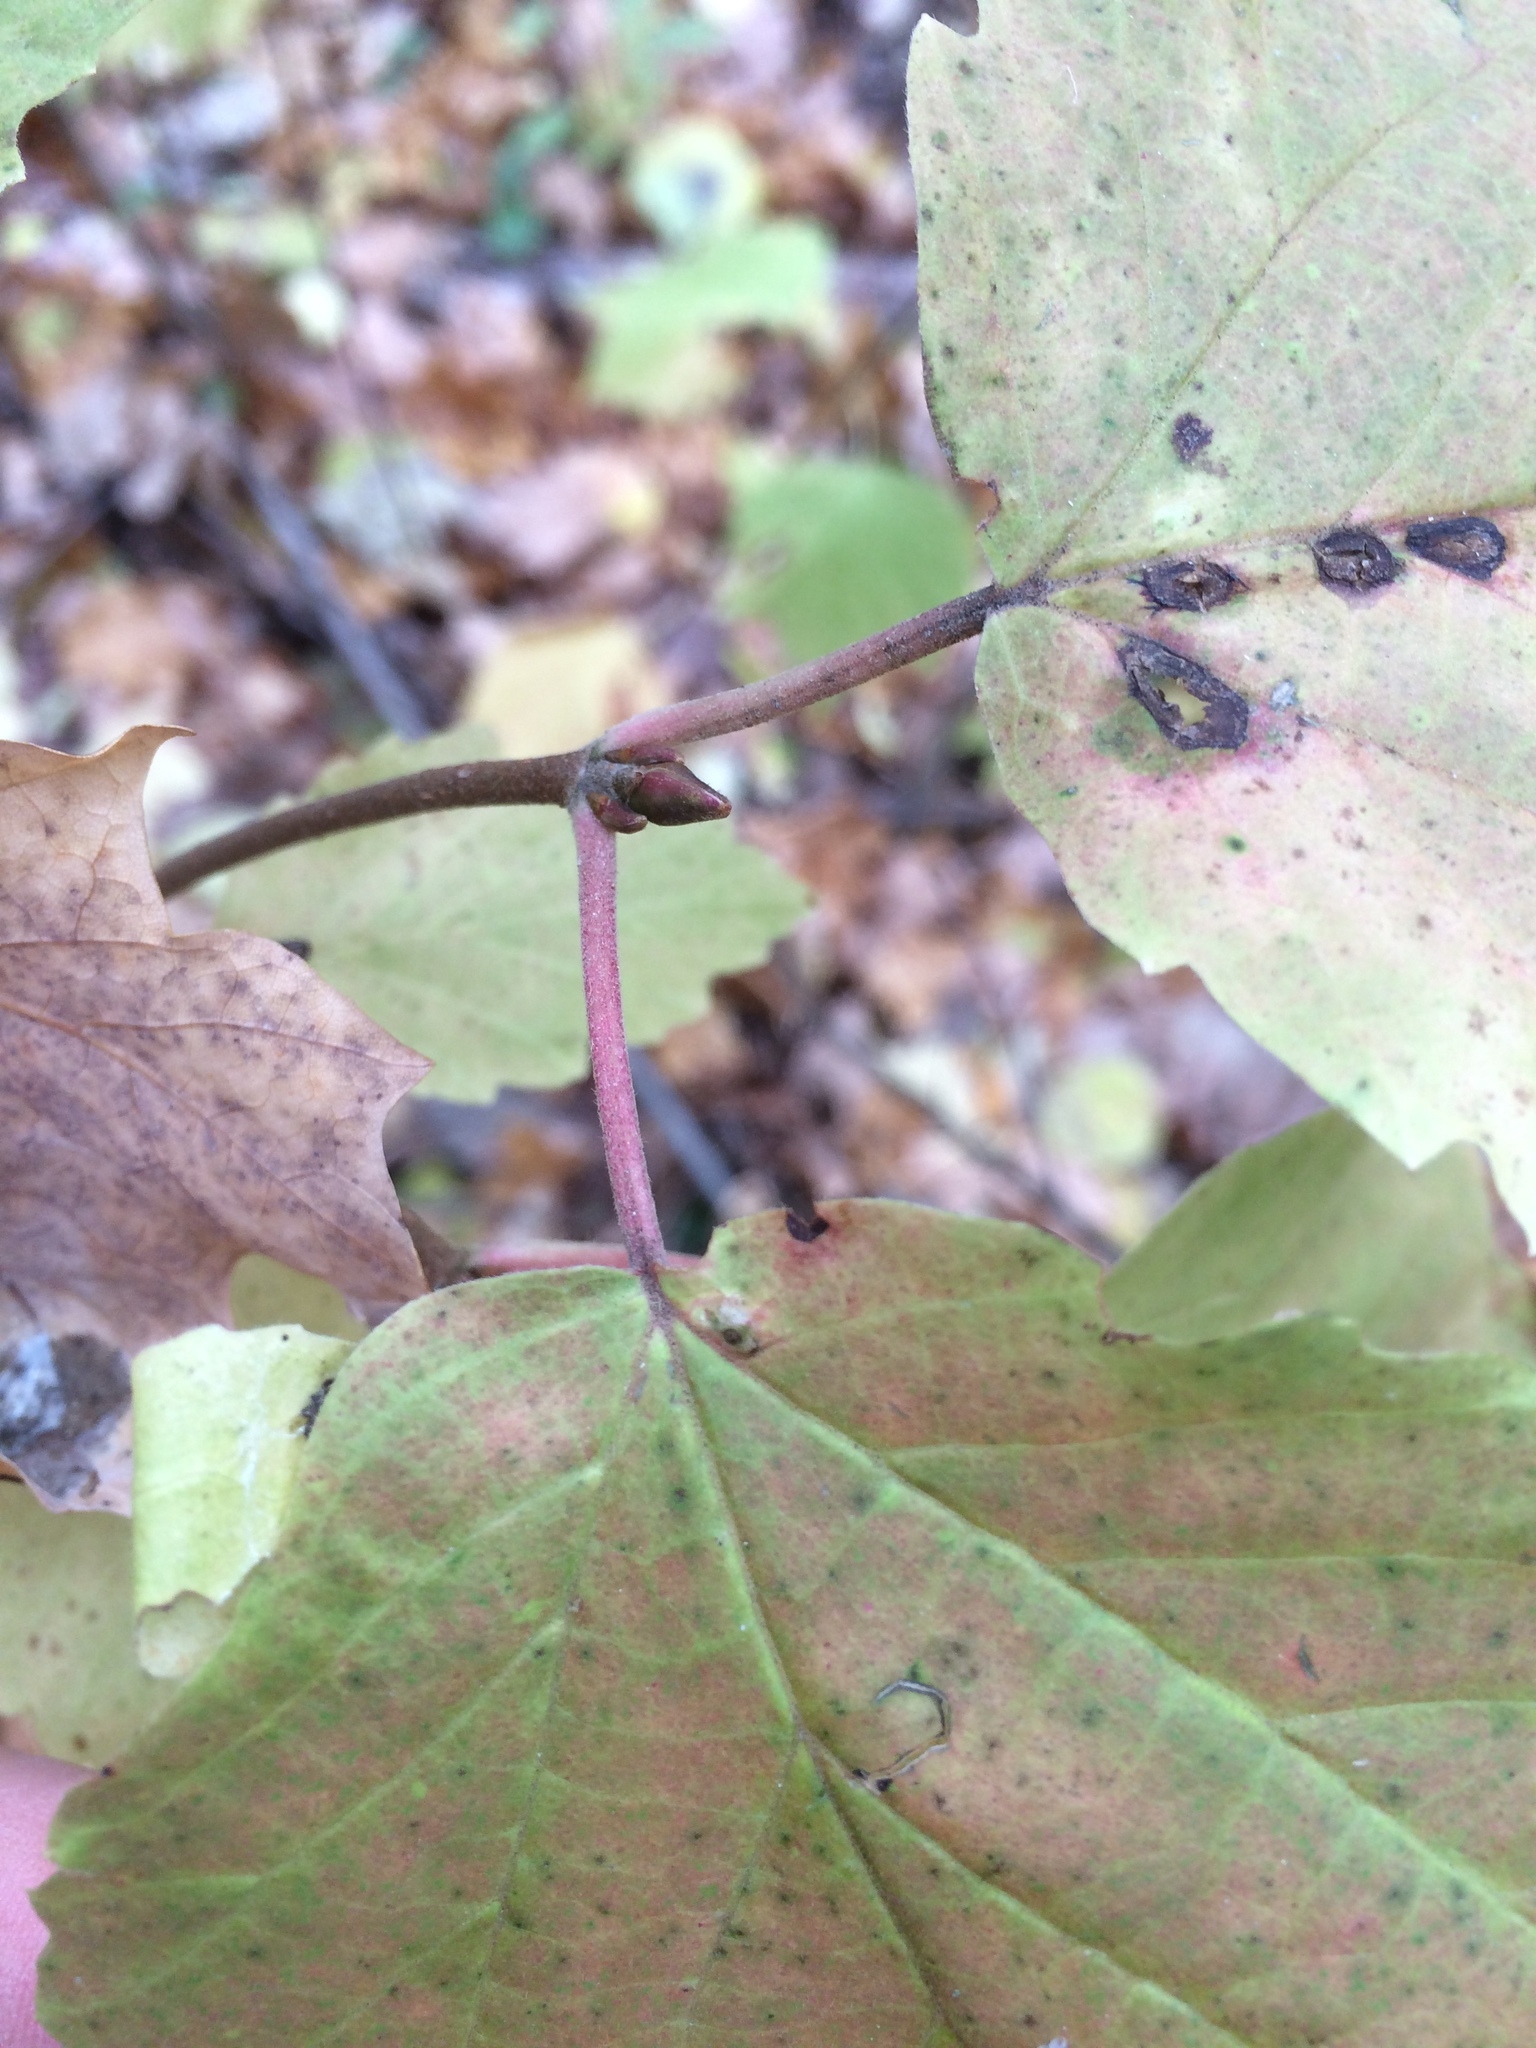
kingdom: Plantae
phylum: Tracheophyta
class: Magnoliopsida
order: Dipsacales
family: Viburnaceae
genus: Viburnum
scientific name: Viburnum acerifolium
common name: Dockmackie
